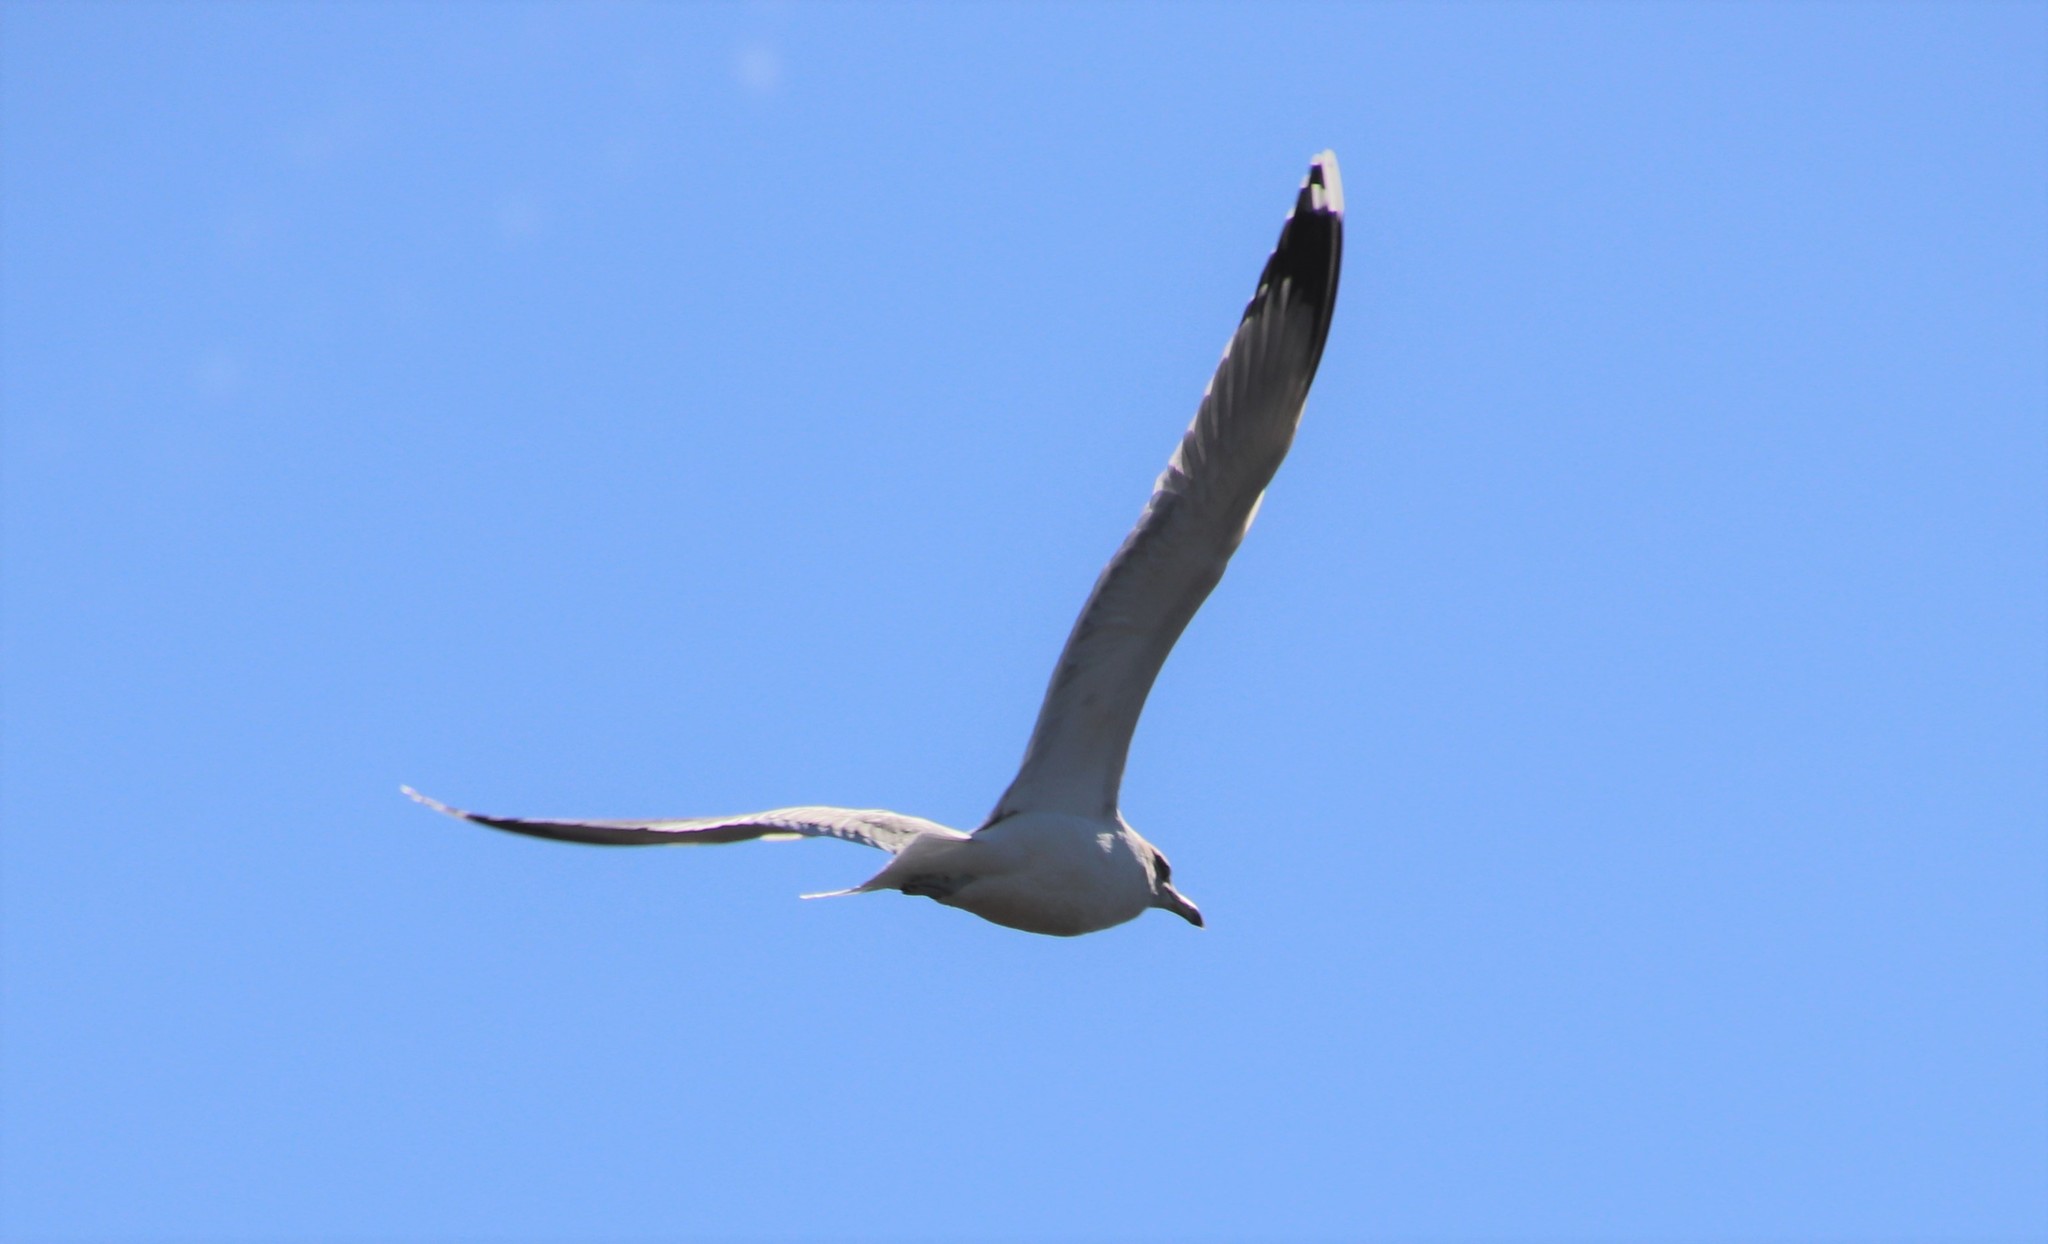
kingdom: Animalia
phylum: Chordata
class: Aves
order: Charadriiformes
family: Laridae
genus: Larus
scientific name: Larus californicus
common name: California gull
